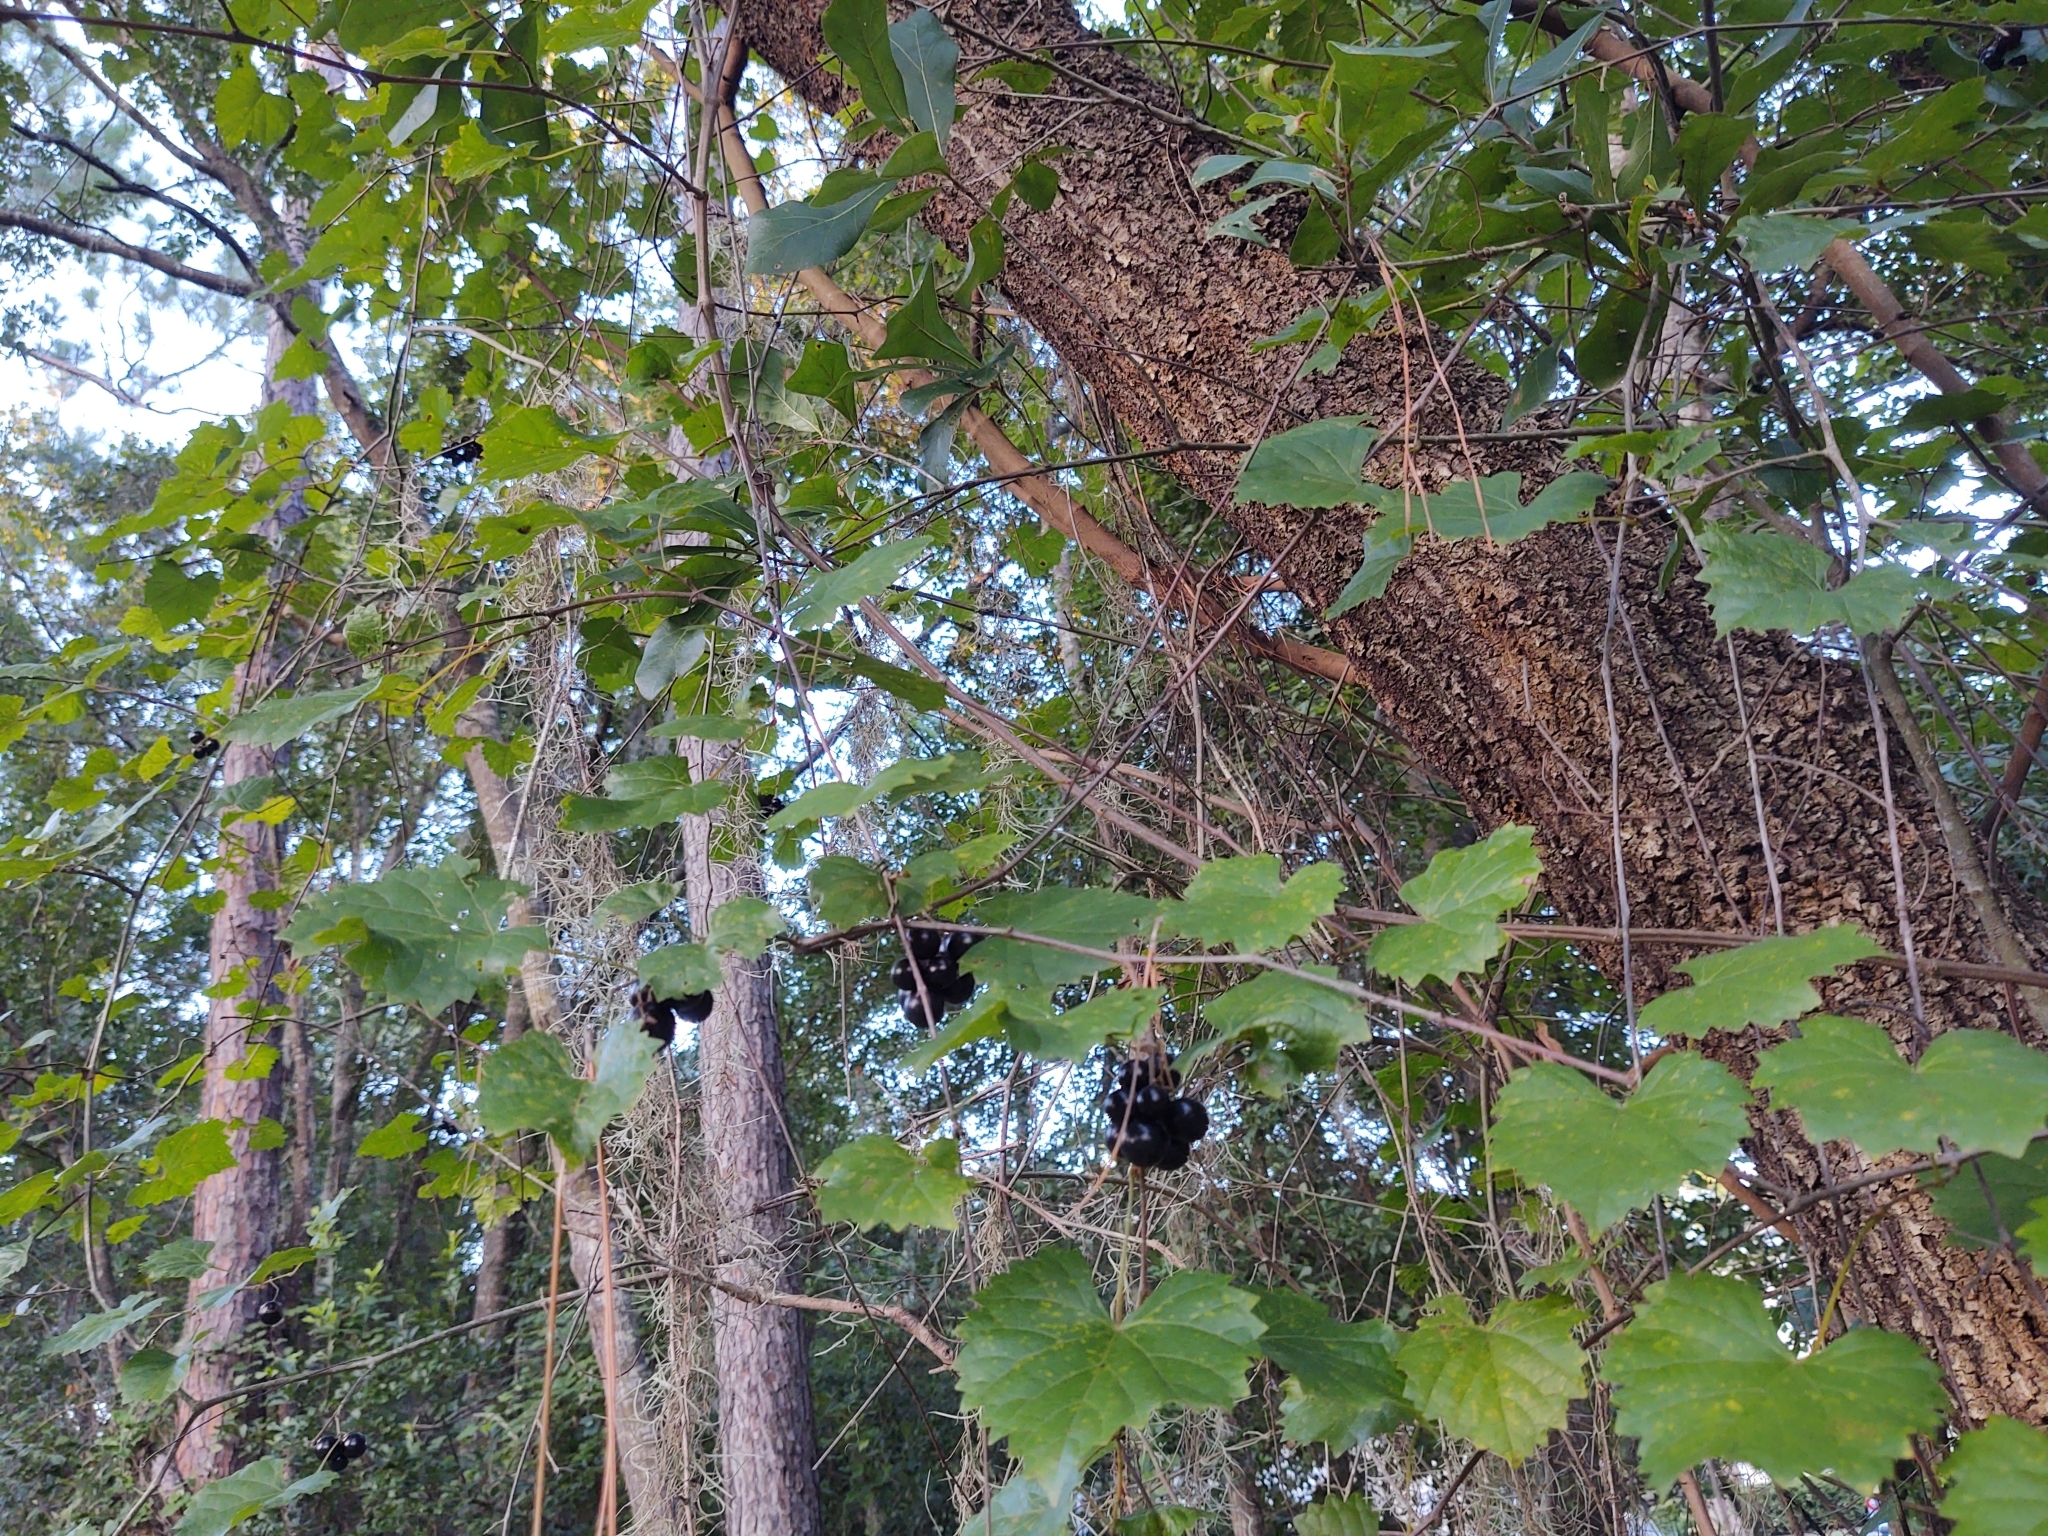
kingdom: Plantae
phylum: Tracheophyta
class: Magnoliopsida
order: Vitales
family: Vitaceae
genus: Vitis
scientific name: Vitis rotundifolia
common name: Muscadine grape
